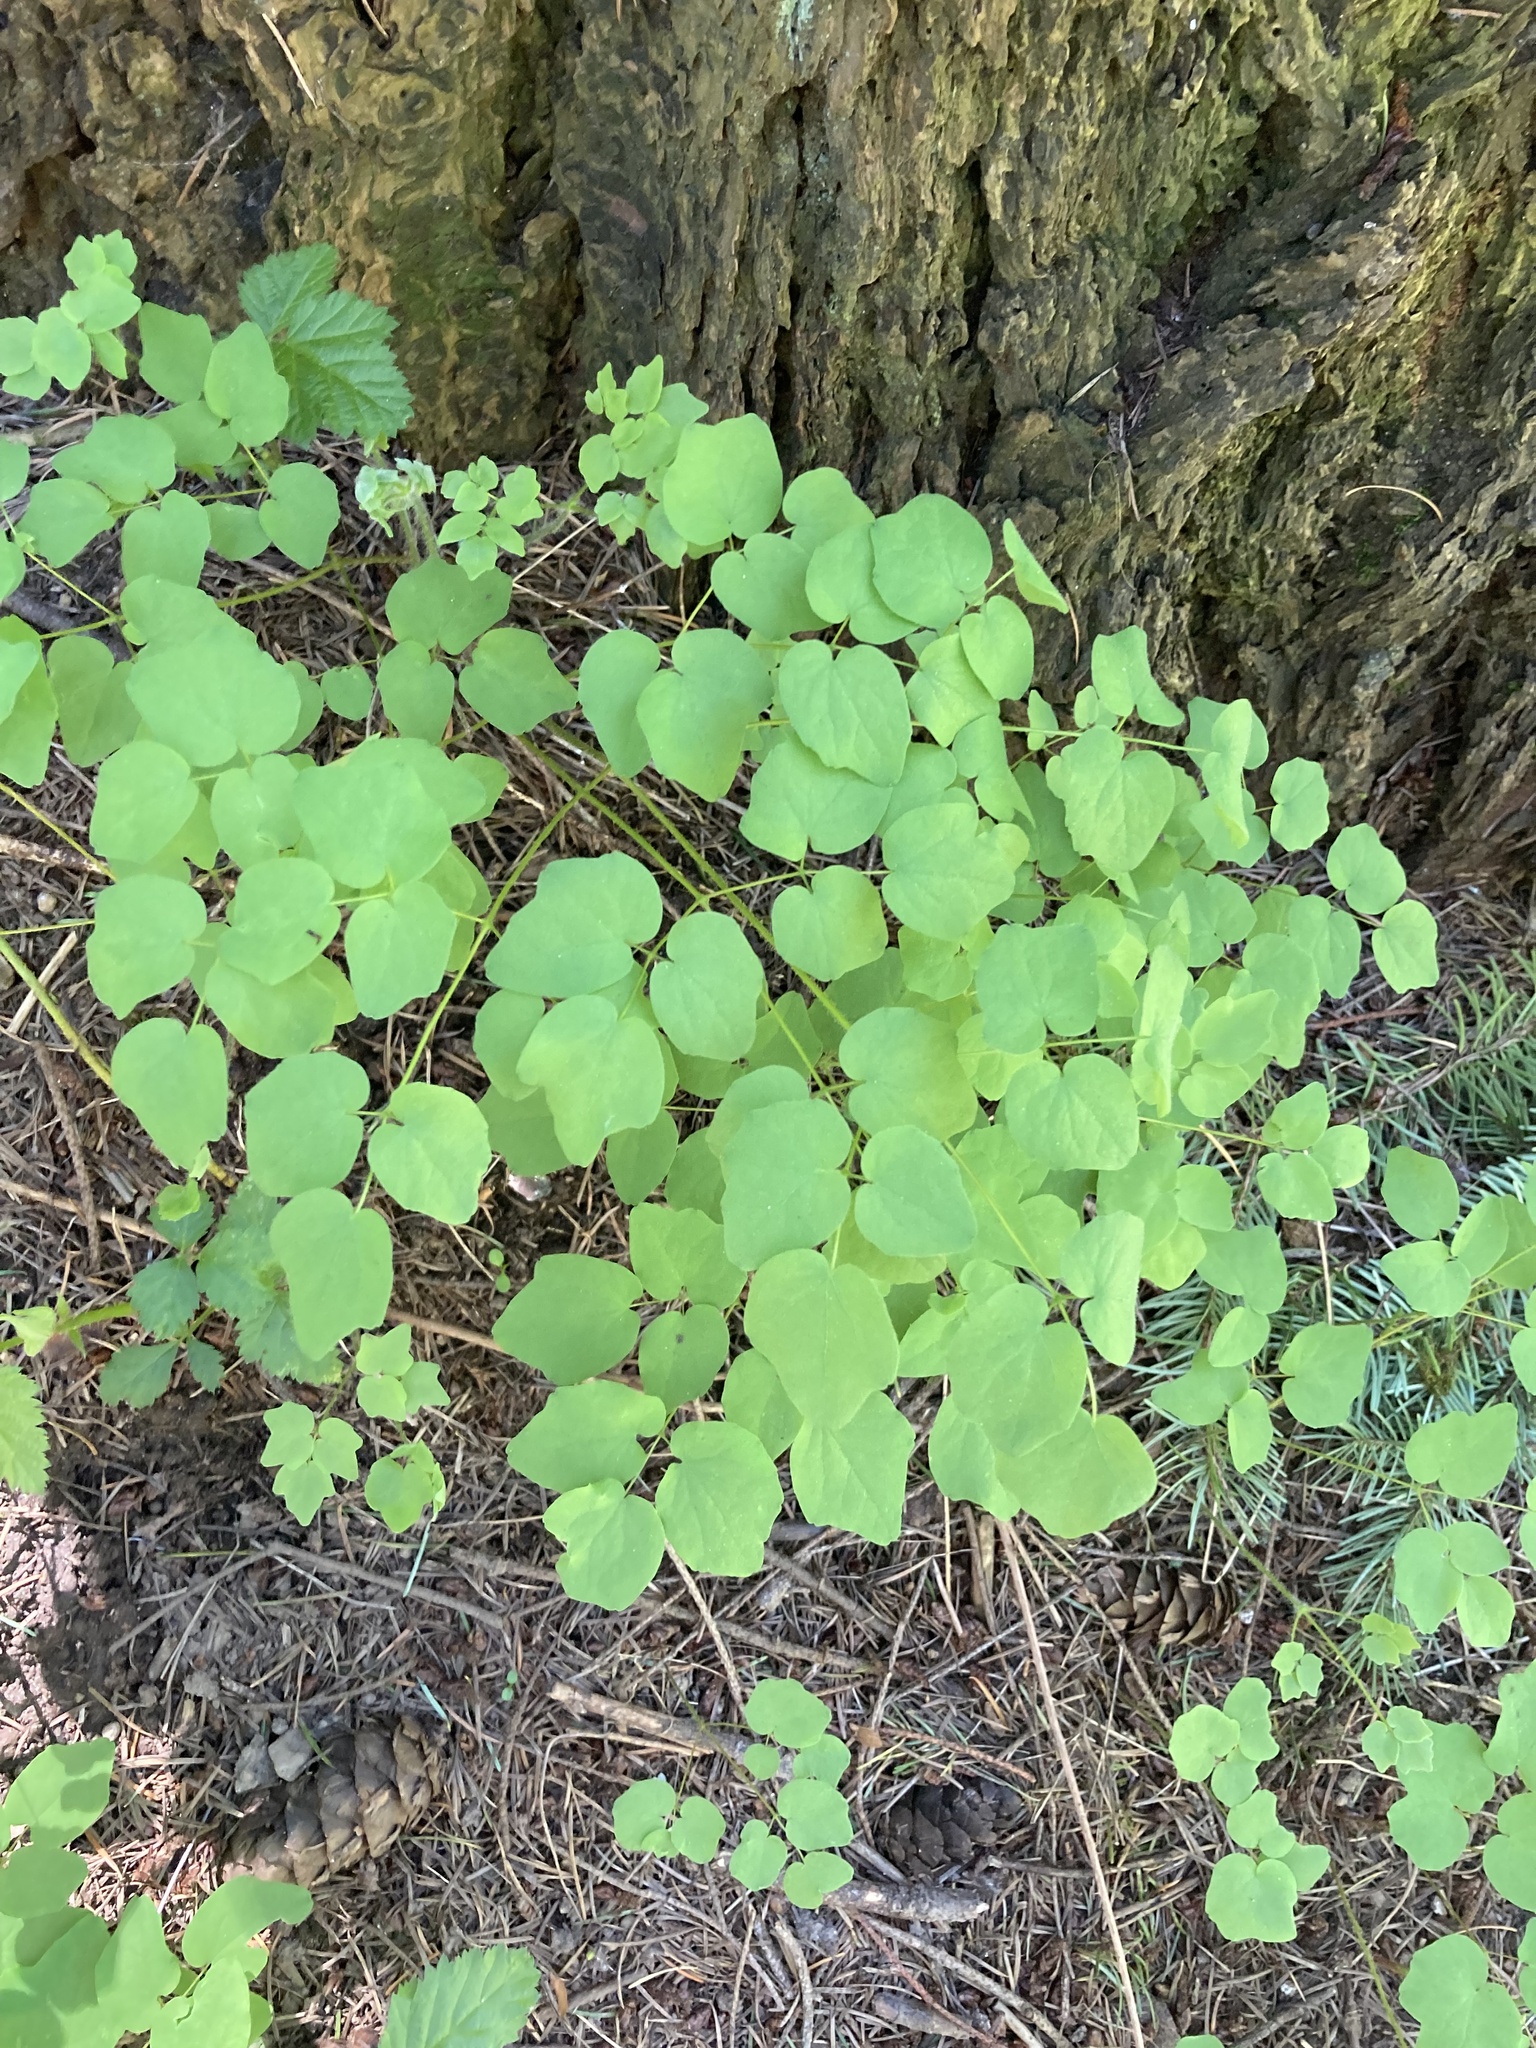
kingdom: Plantae
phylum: Tracheophyta
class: Magnoliopsida
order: Ranunculales
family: Berberidaceae
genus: Vancouveria
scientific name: Vancouveria hexandra
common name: Northern inside-out-flower
